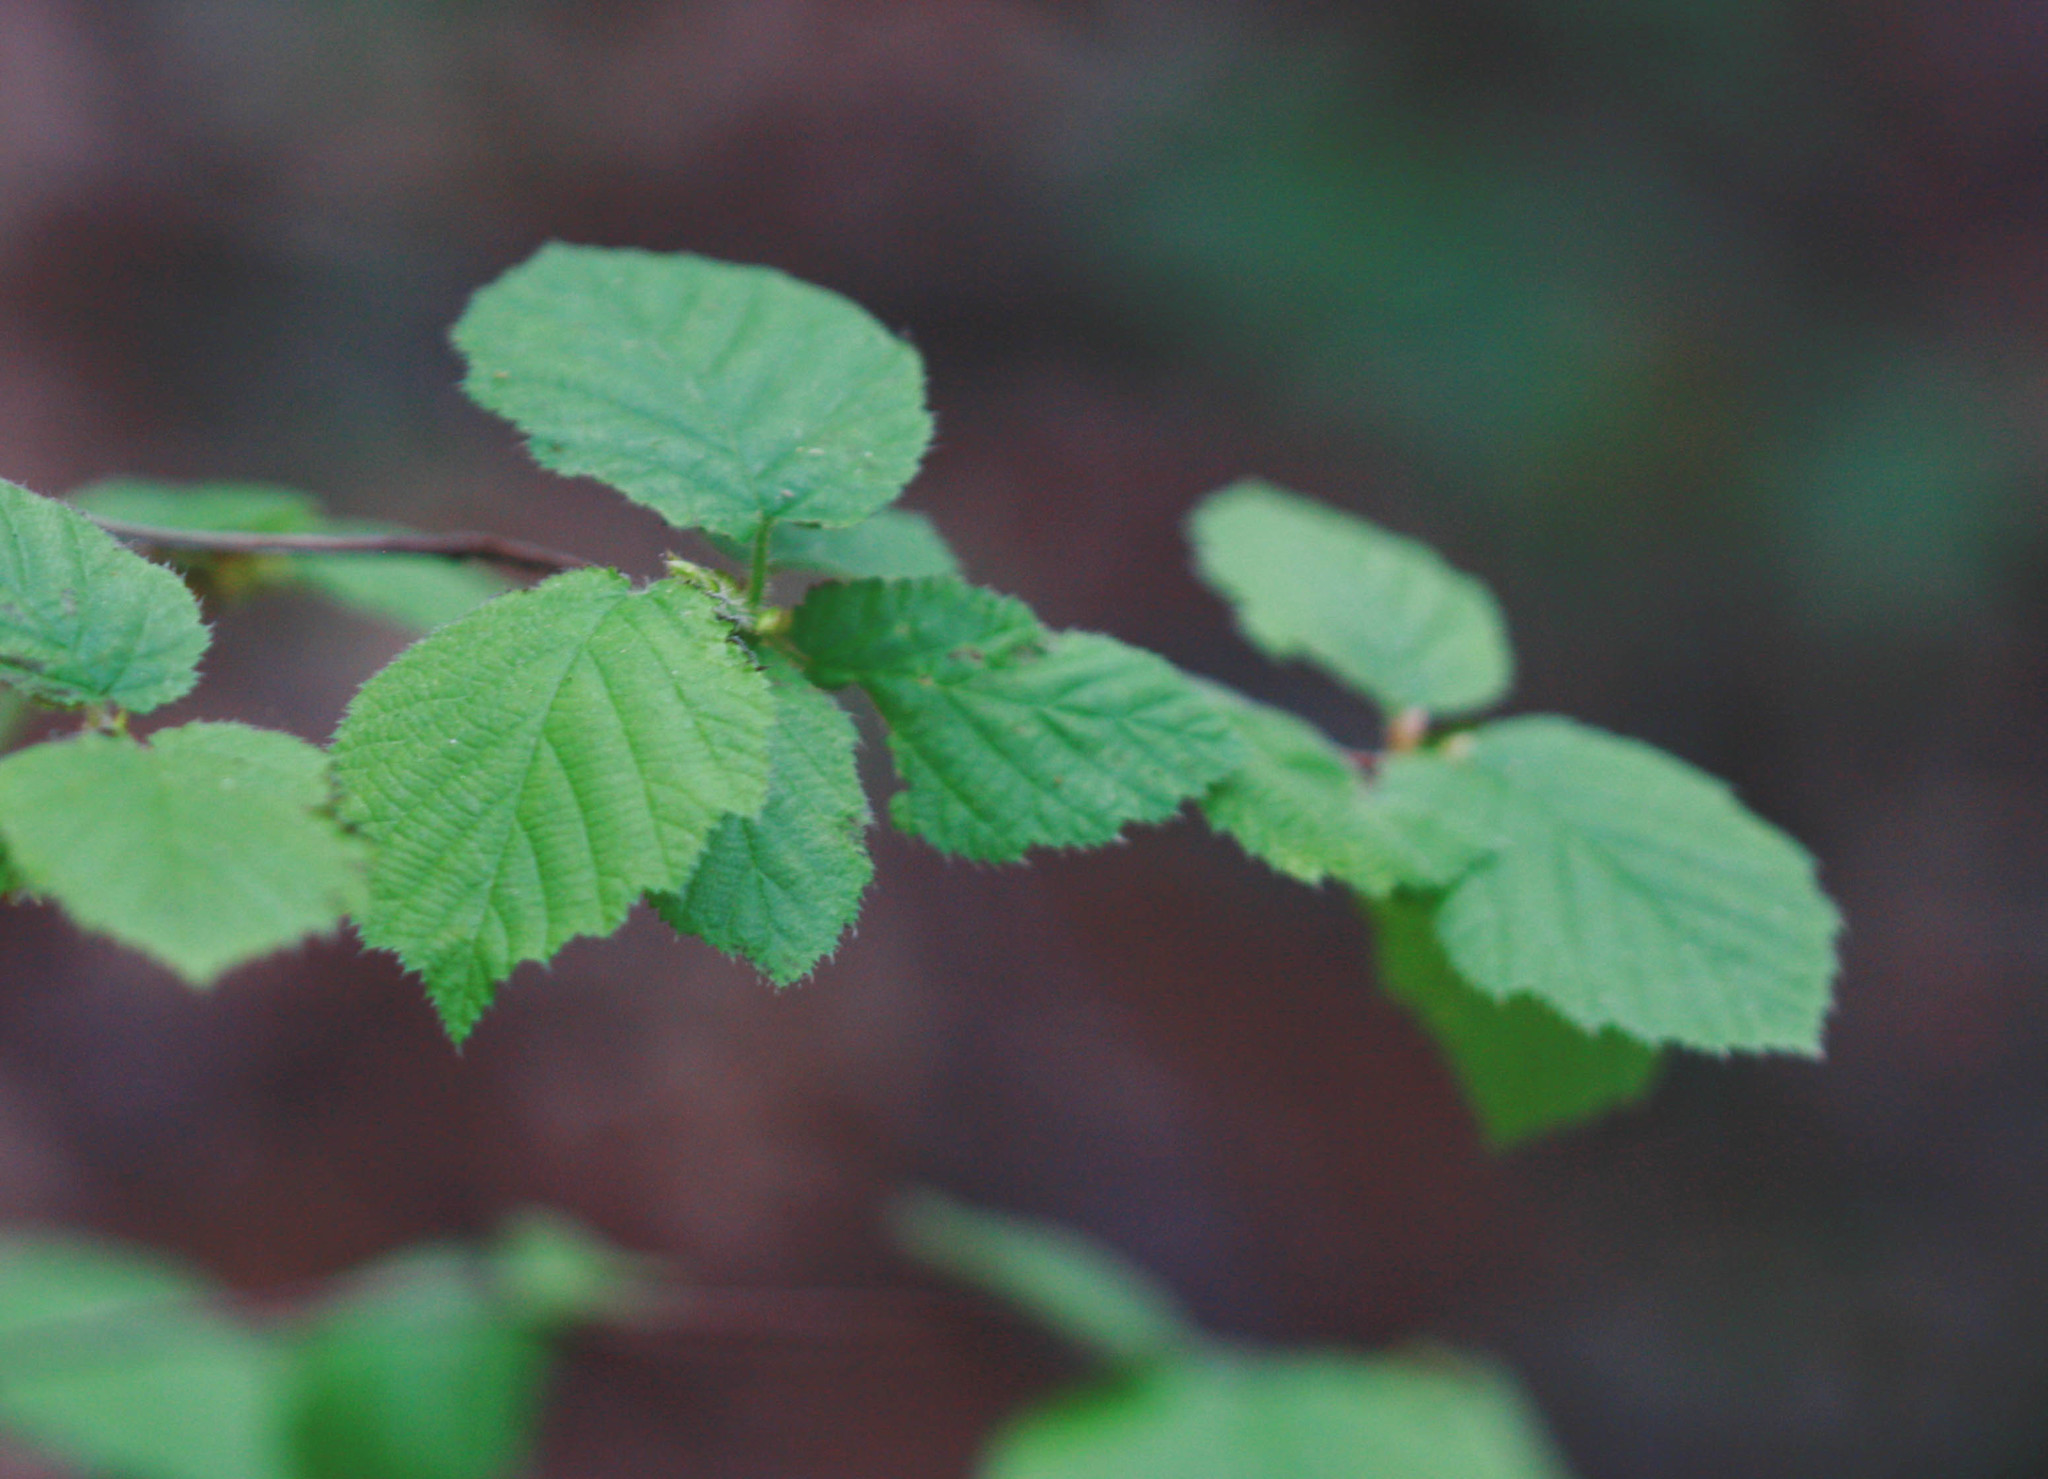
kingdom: Plantae
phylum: Tracheophyta
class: Magnoliopsida
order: Fagales
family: Betulaceae
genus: Corylus
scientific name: Corylus cornuta
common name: Beaked hazel
